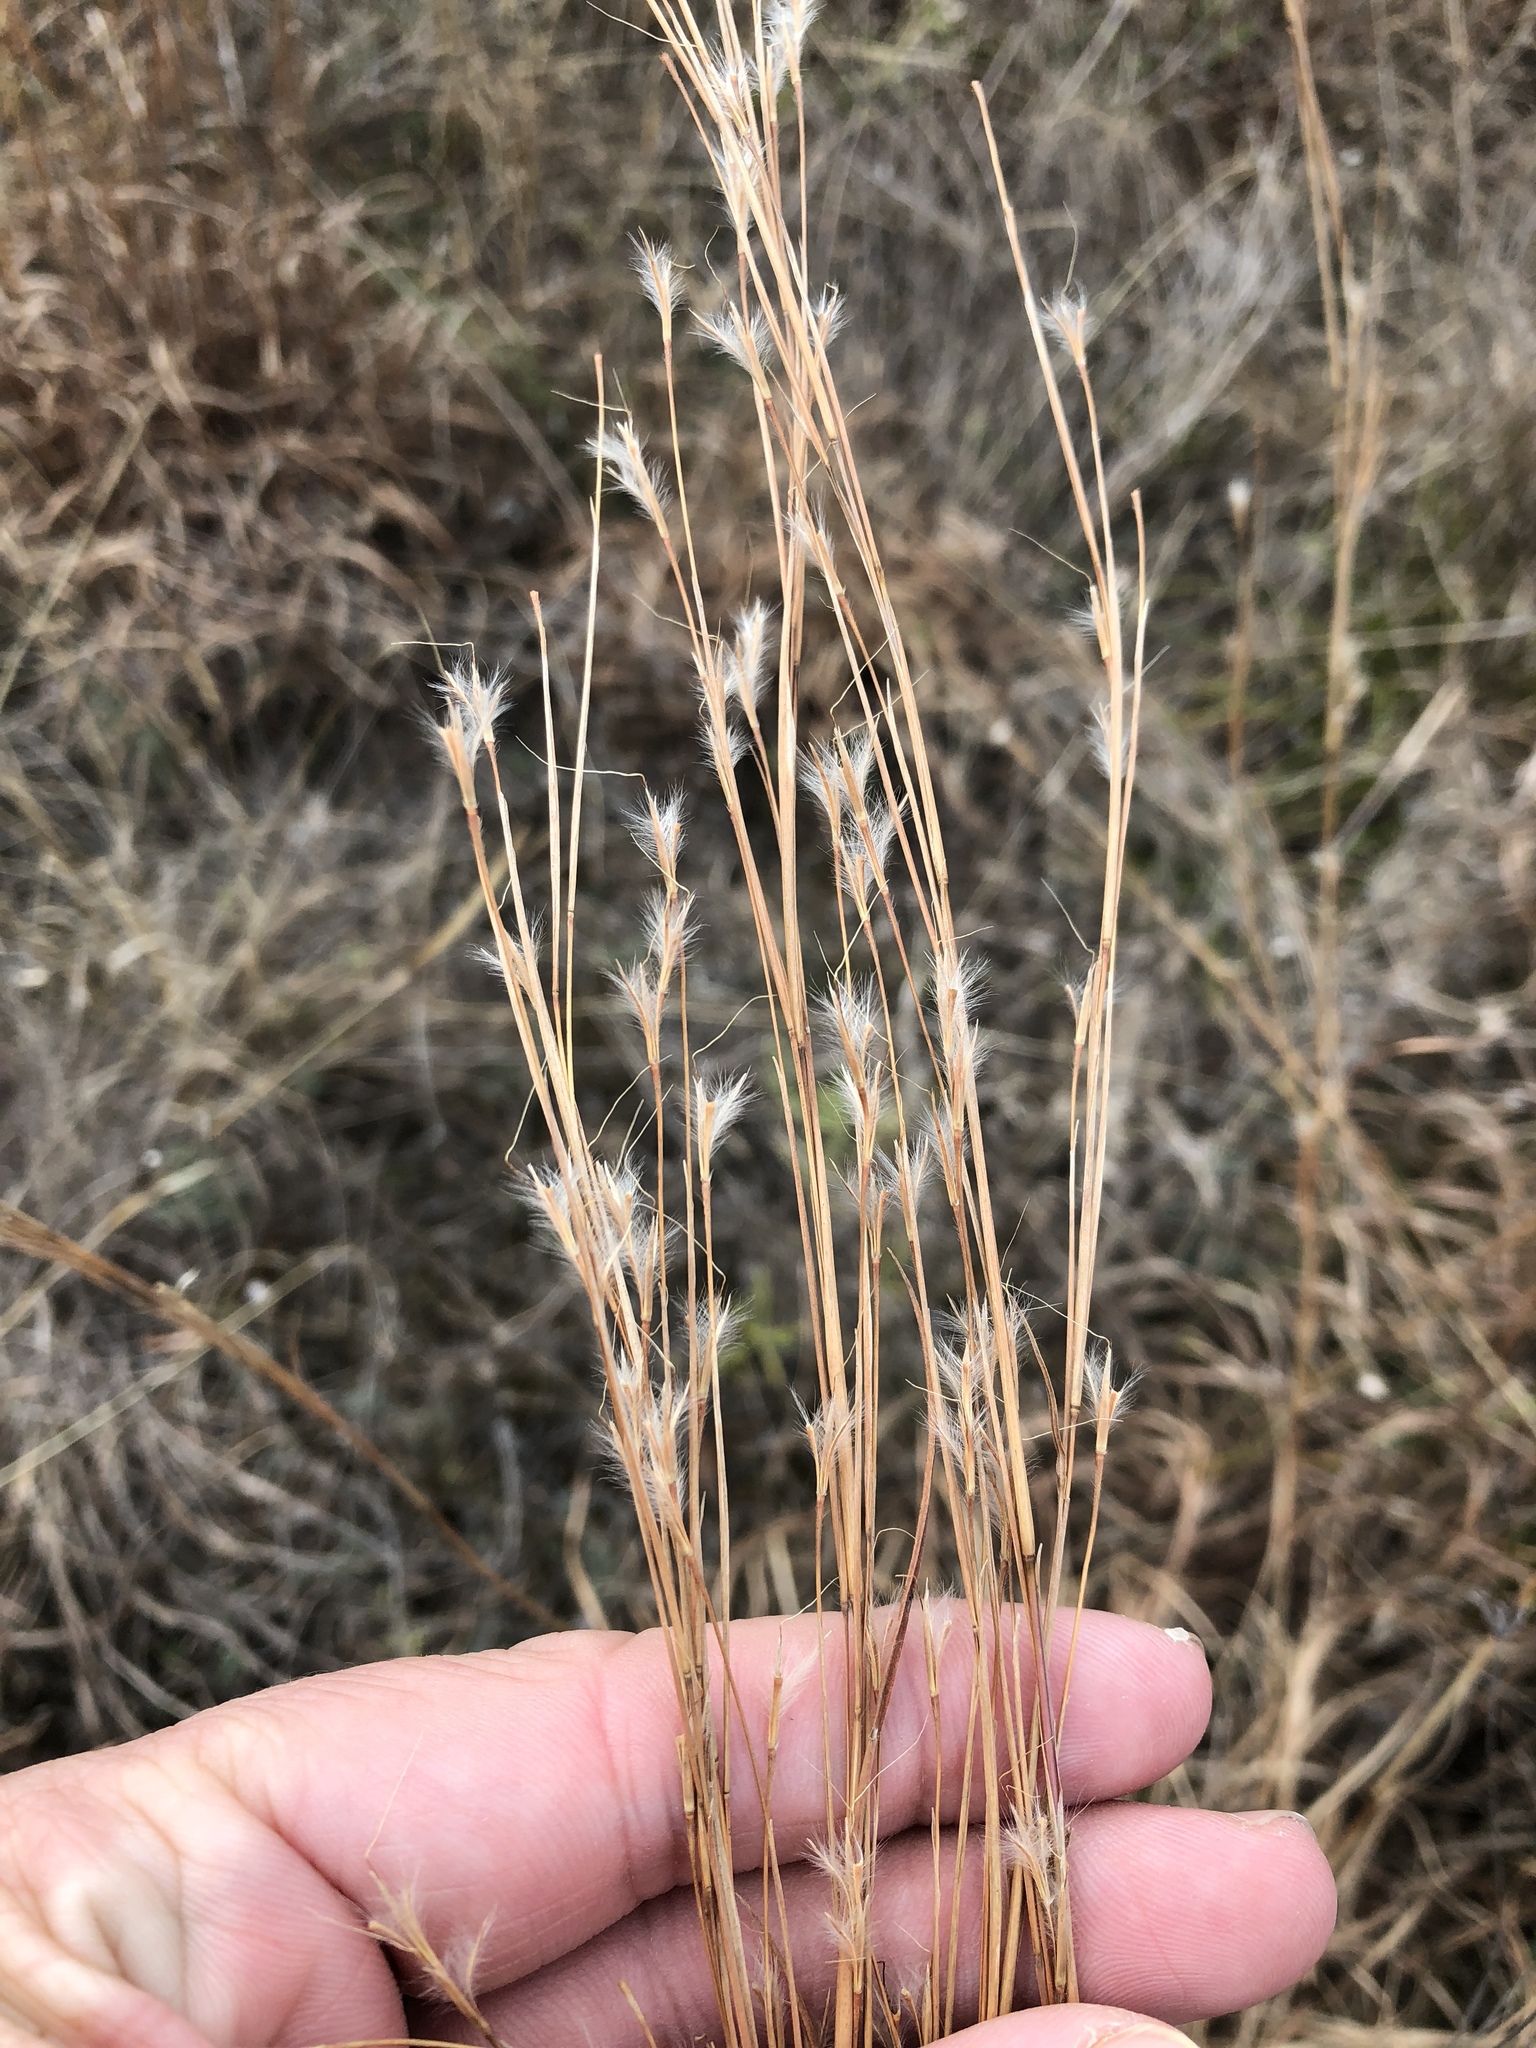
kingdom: Plantae
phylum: Tracheophyta
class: Liliopsida
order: Poales
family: Poaceae
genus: Schizachyrium
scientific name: Schizachyrium scoparium
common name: Little bluestem
